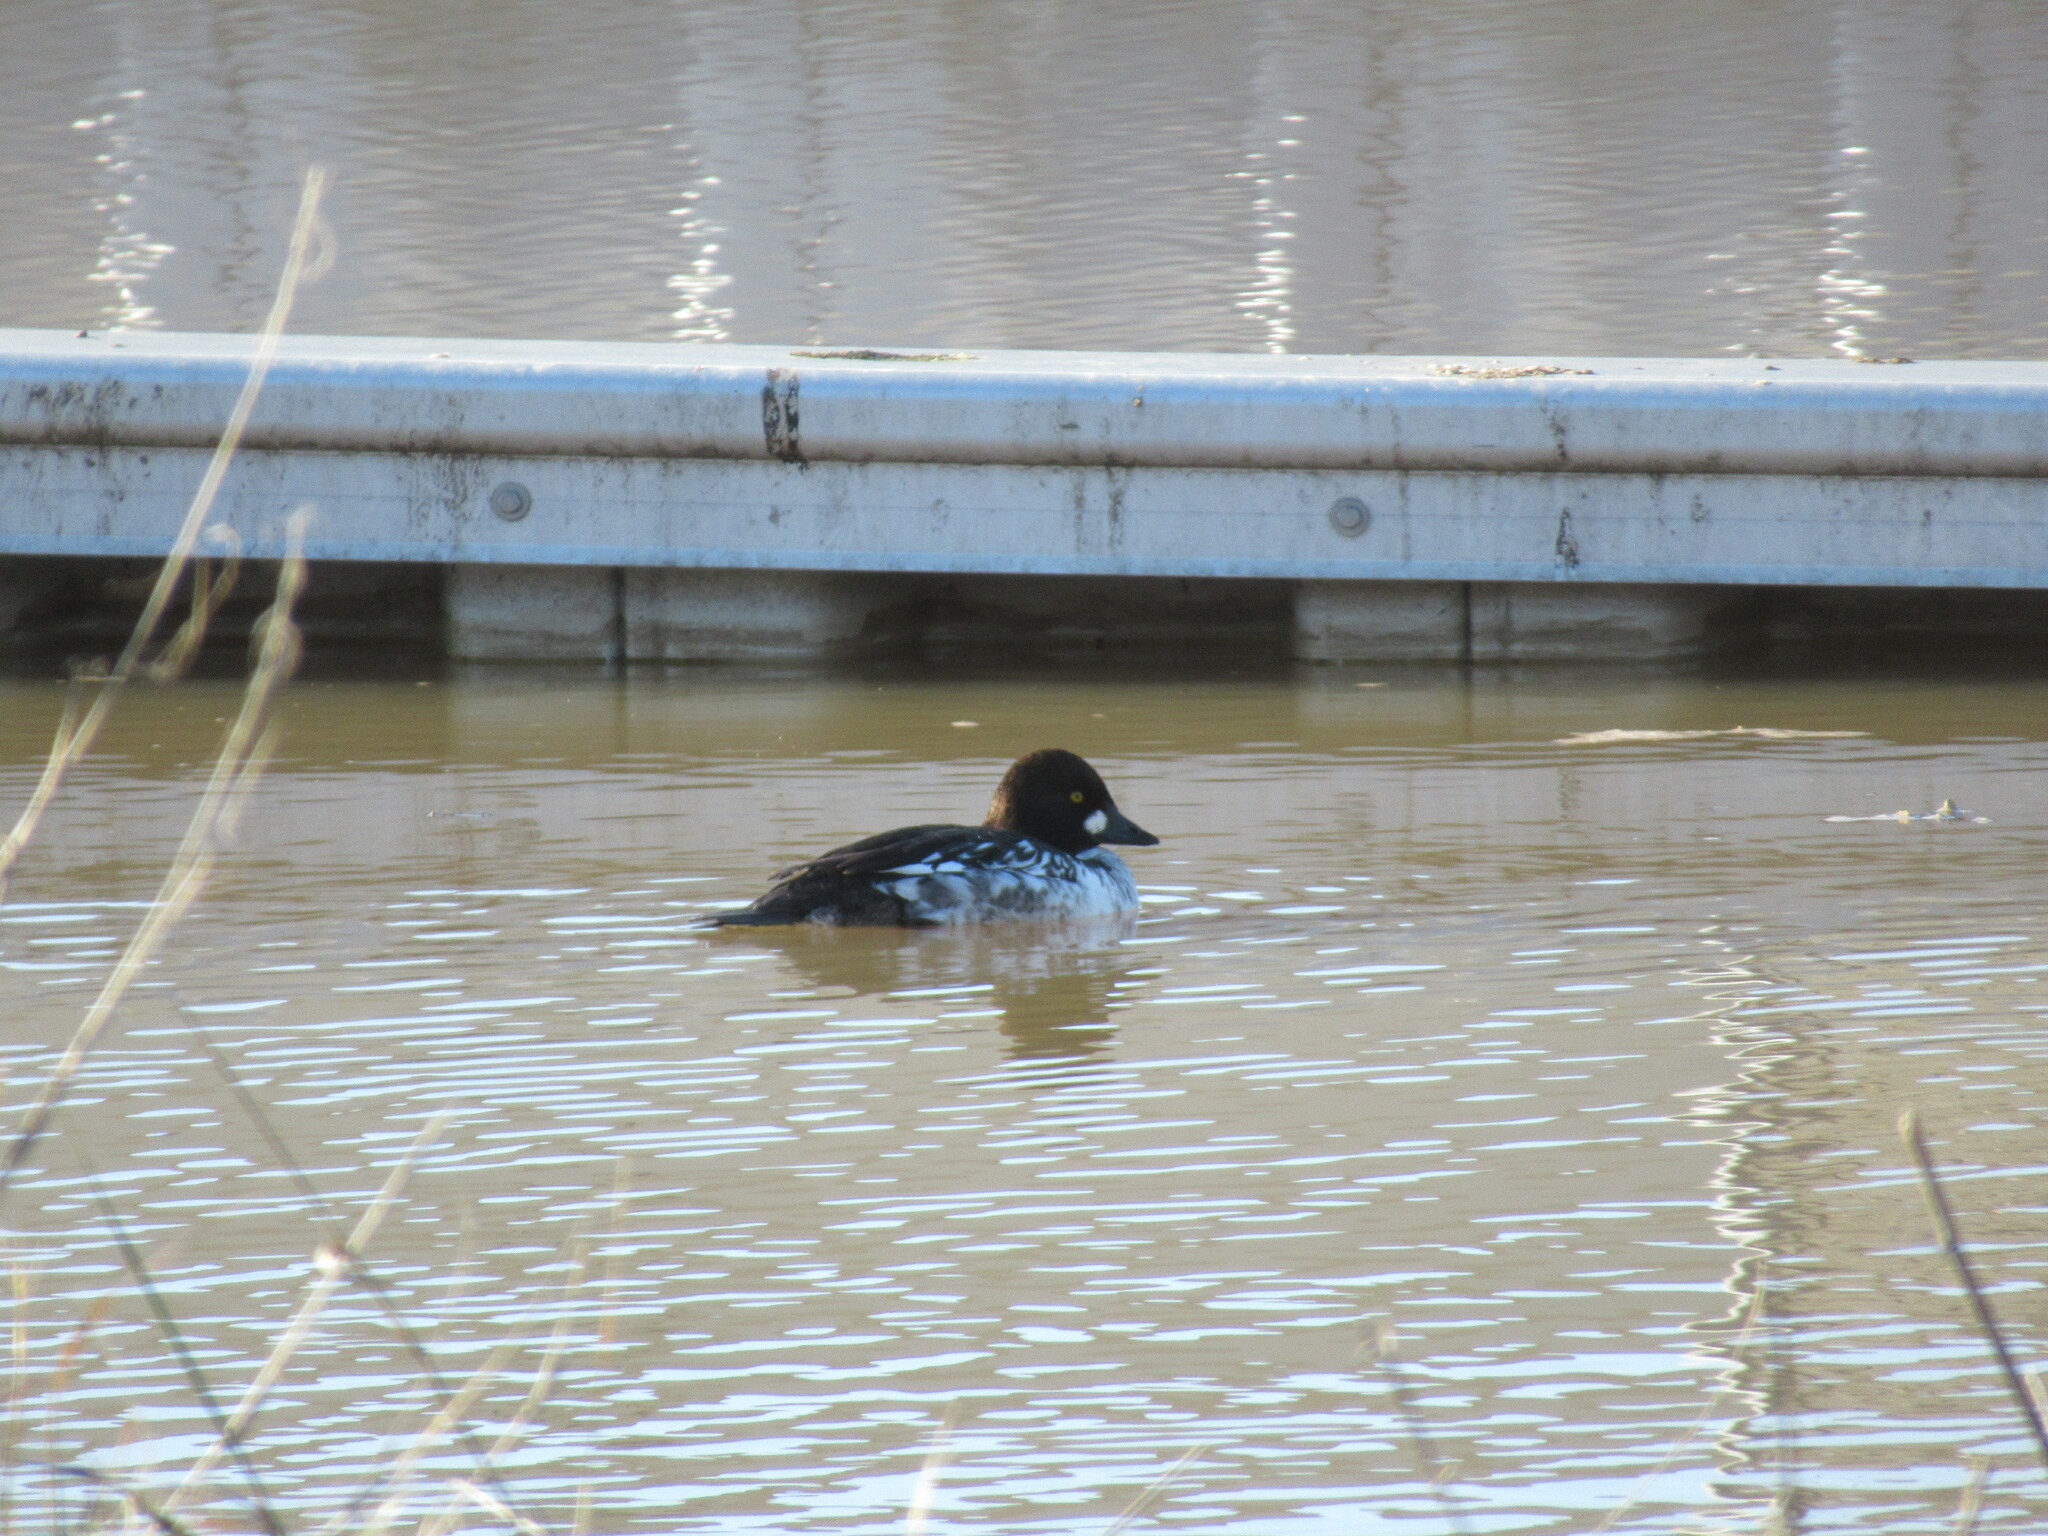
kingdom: Animalia
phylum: Chordata
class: Aves
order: Anseriformes
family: Anatidae
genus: Bucephala
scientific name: Bucephala clangula
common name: Common goldeneye
